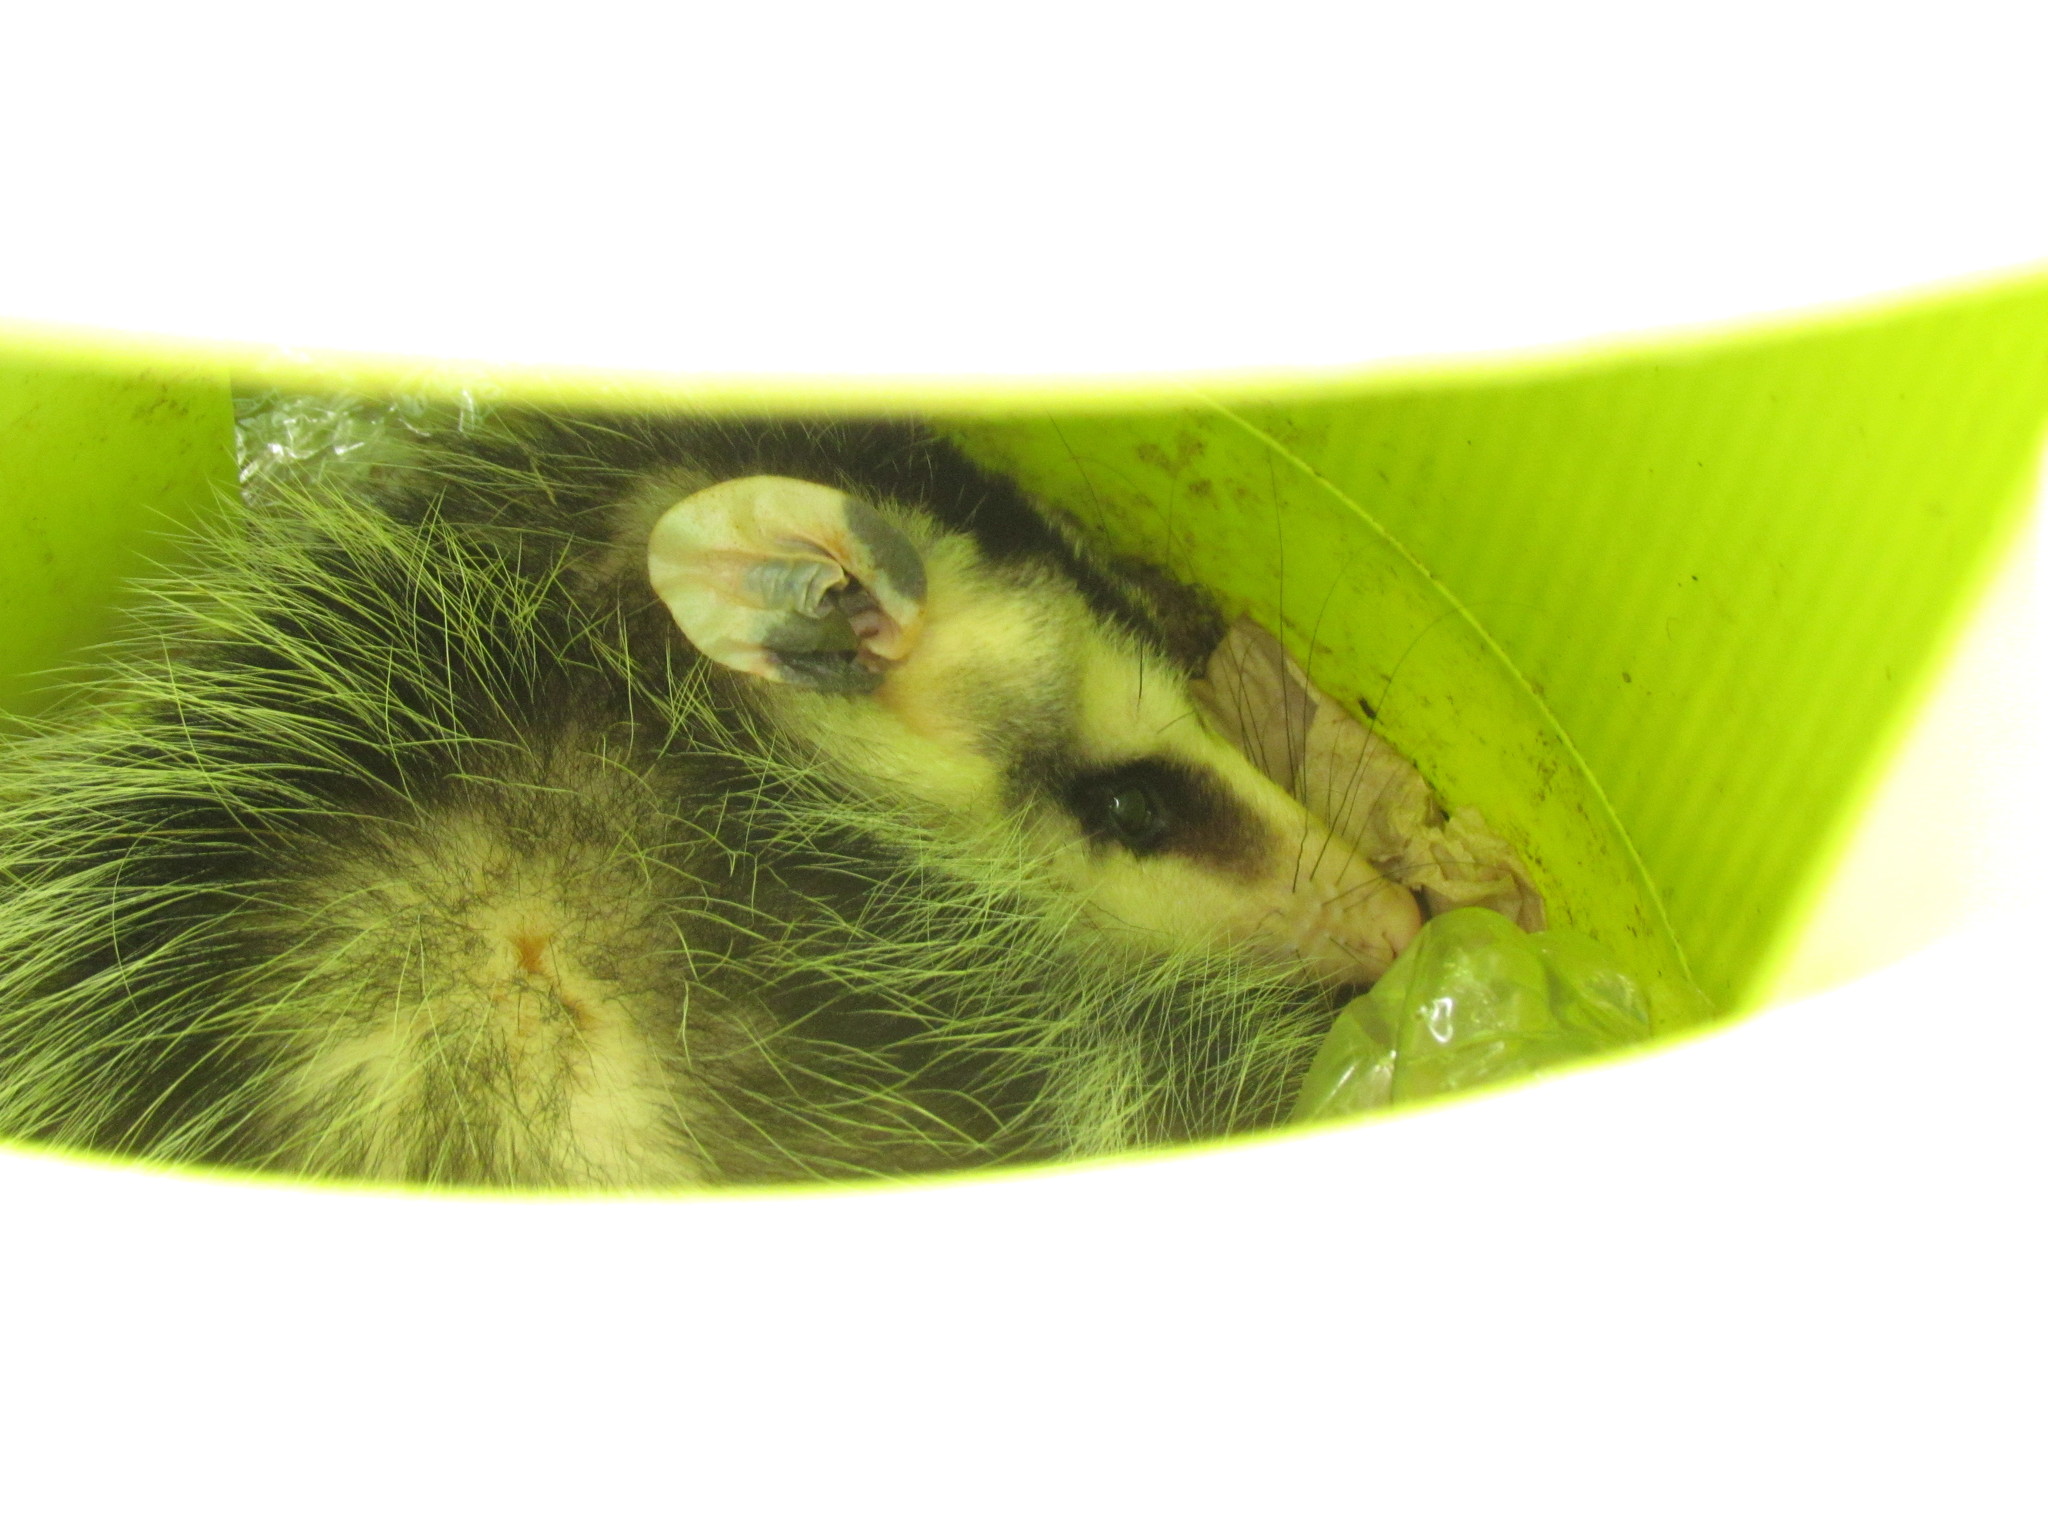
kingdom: Animalia
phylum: Chordata
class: Mammalia
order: Didelphimorphia
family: Didelphidae
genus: Didelphis
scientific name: Didelphis albiventris
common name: White-eared opossum
